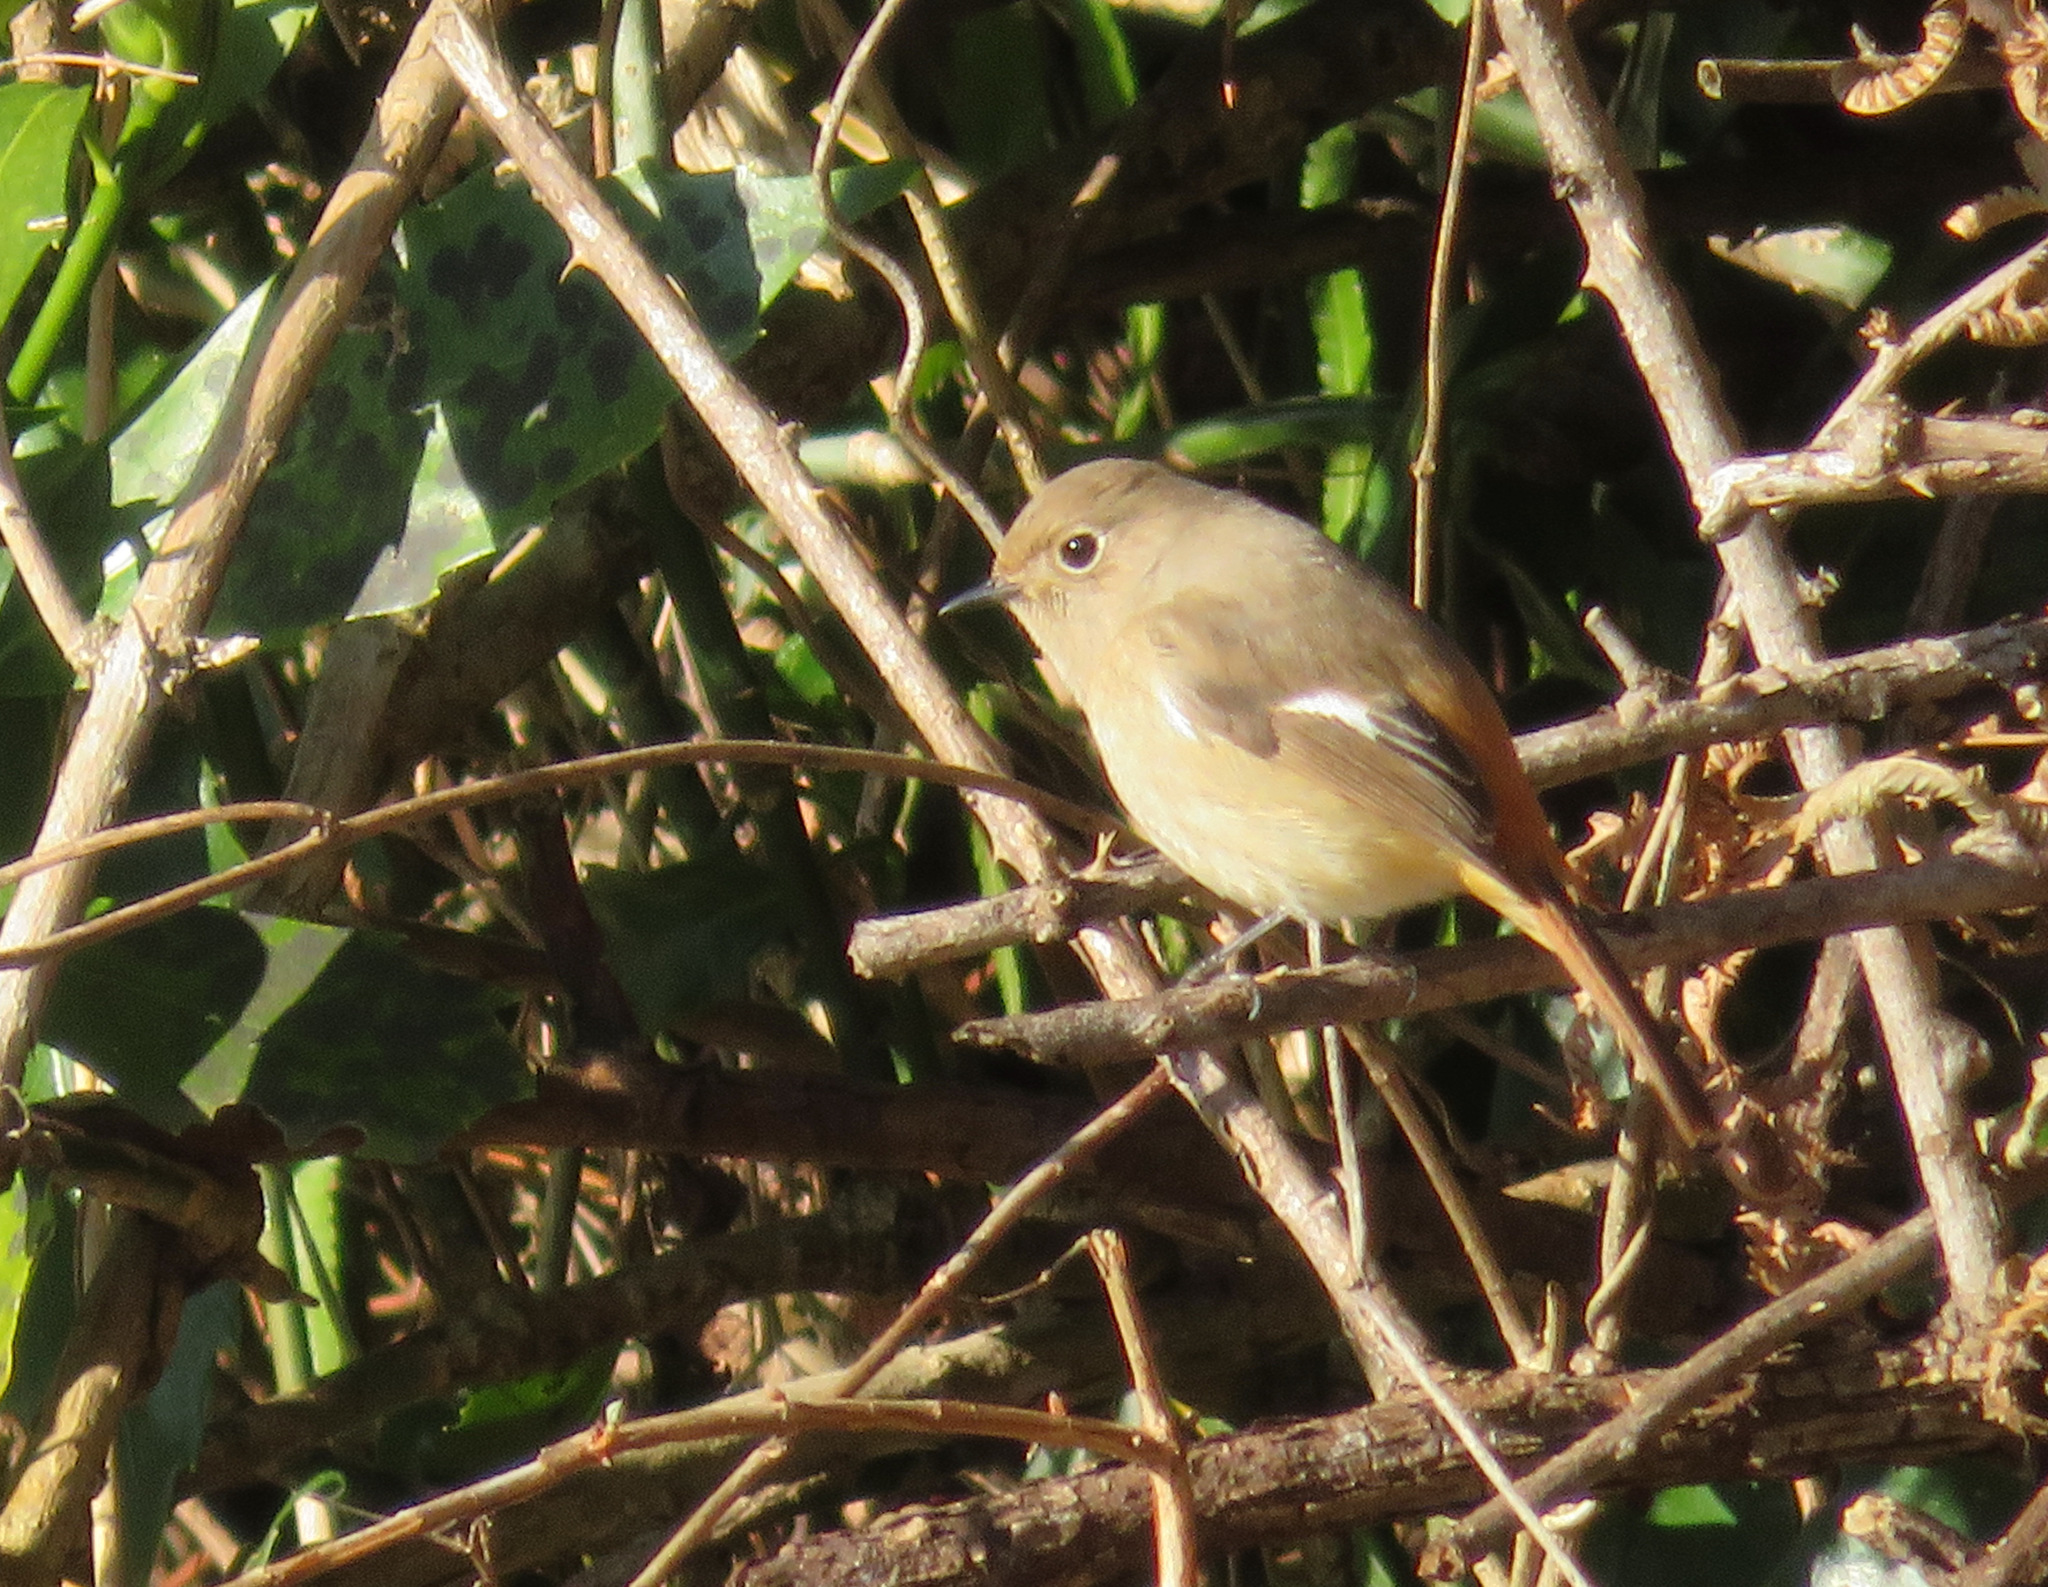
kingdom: Animalia
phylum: Chordata
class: Aves
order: Passeriformes
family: Muscicapidae
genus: Phoenicurus
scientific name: Phoenicurus auroreus
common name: Daurian redstart
